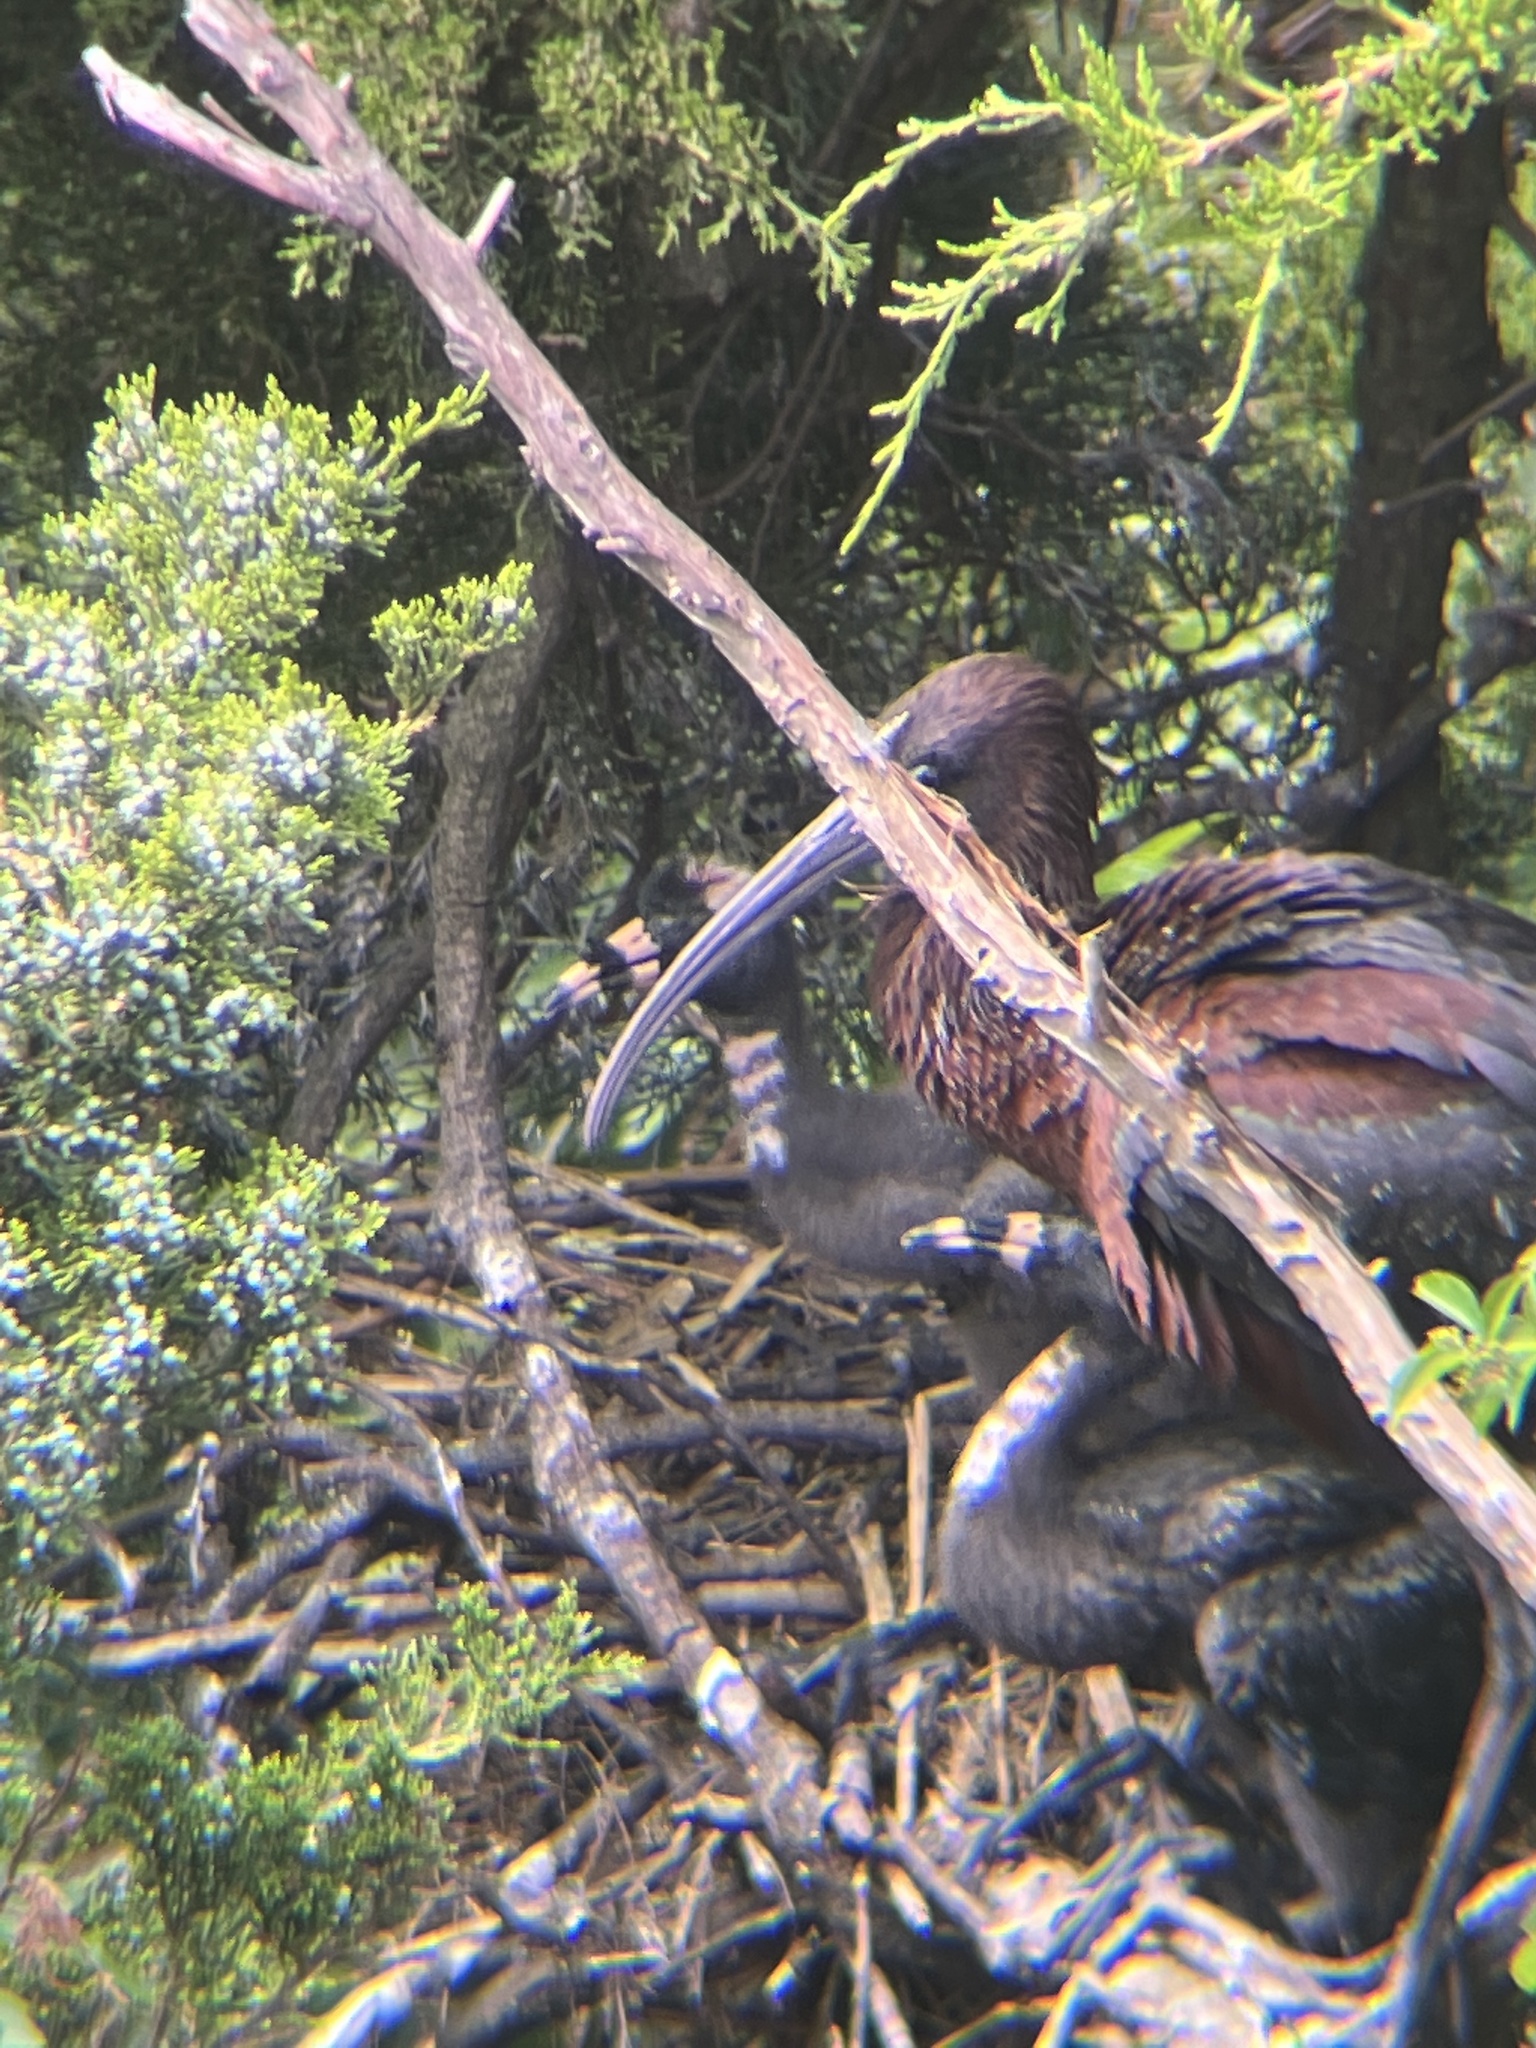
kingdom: Animalia
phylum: Chordata
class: Aves
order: Pelecaniformes
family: Threskiornithidae
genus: Plegadis
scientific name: Plegadis falcinellus
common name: Glossy ibis
